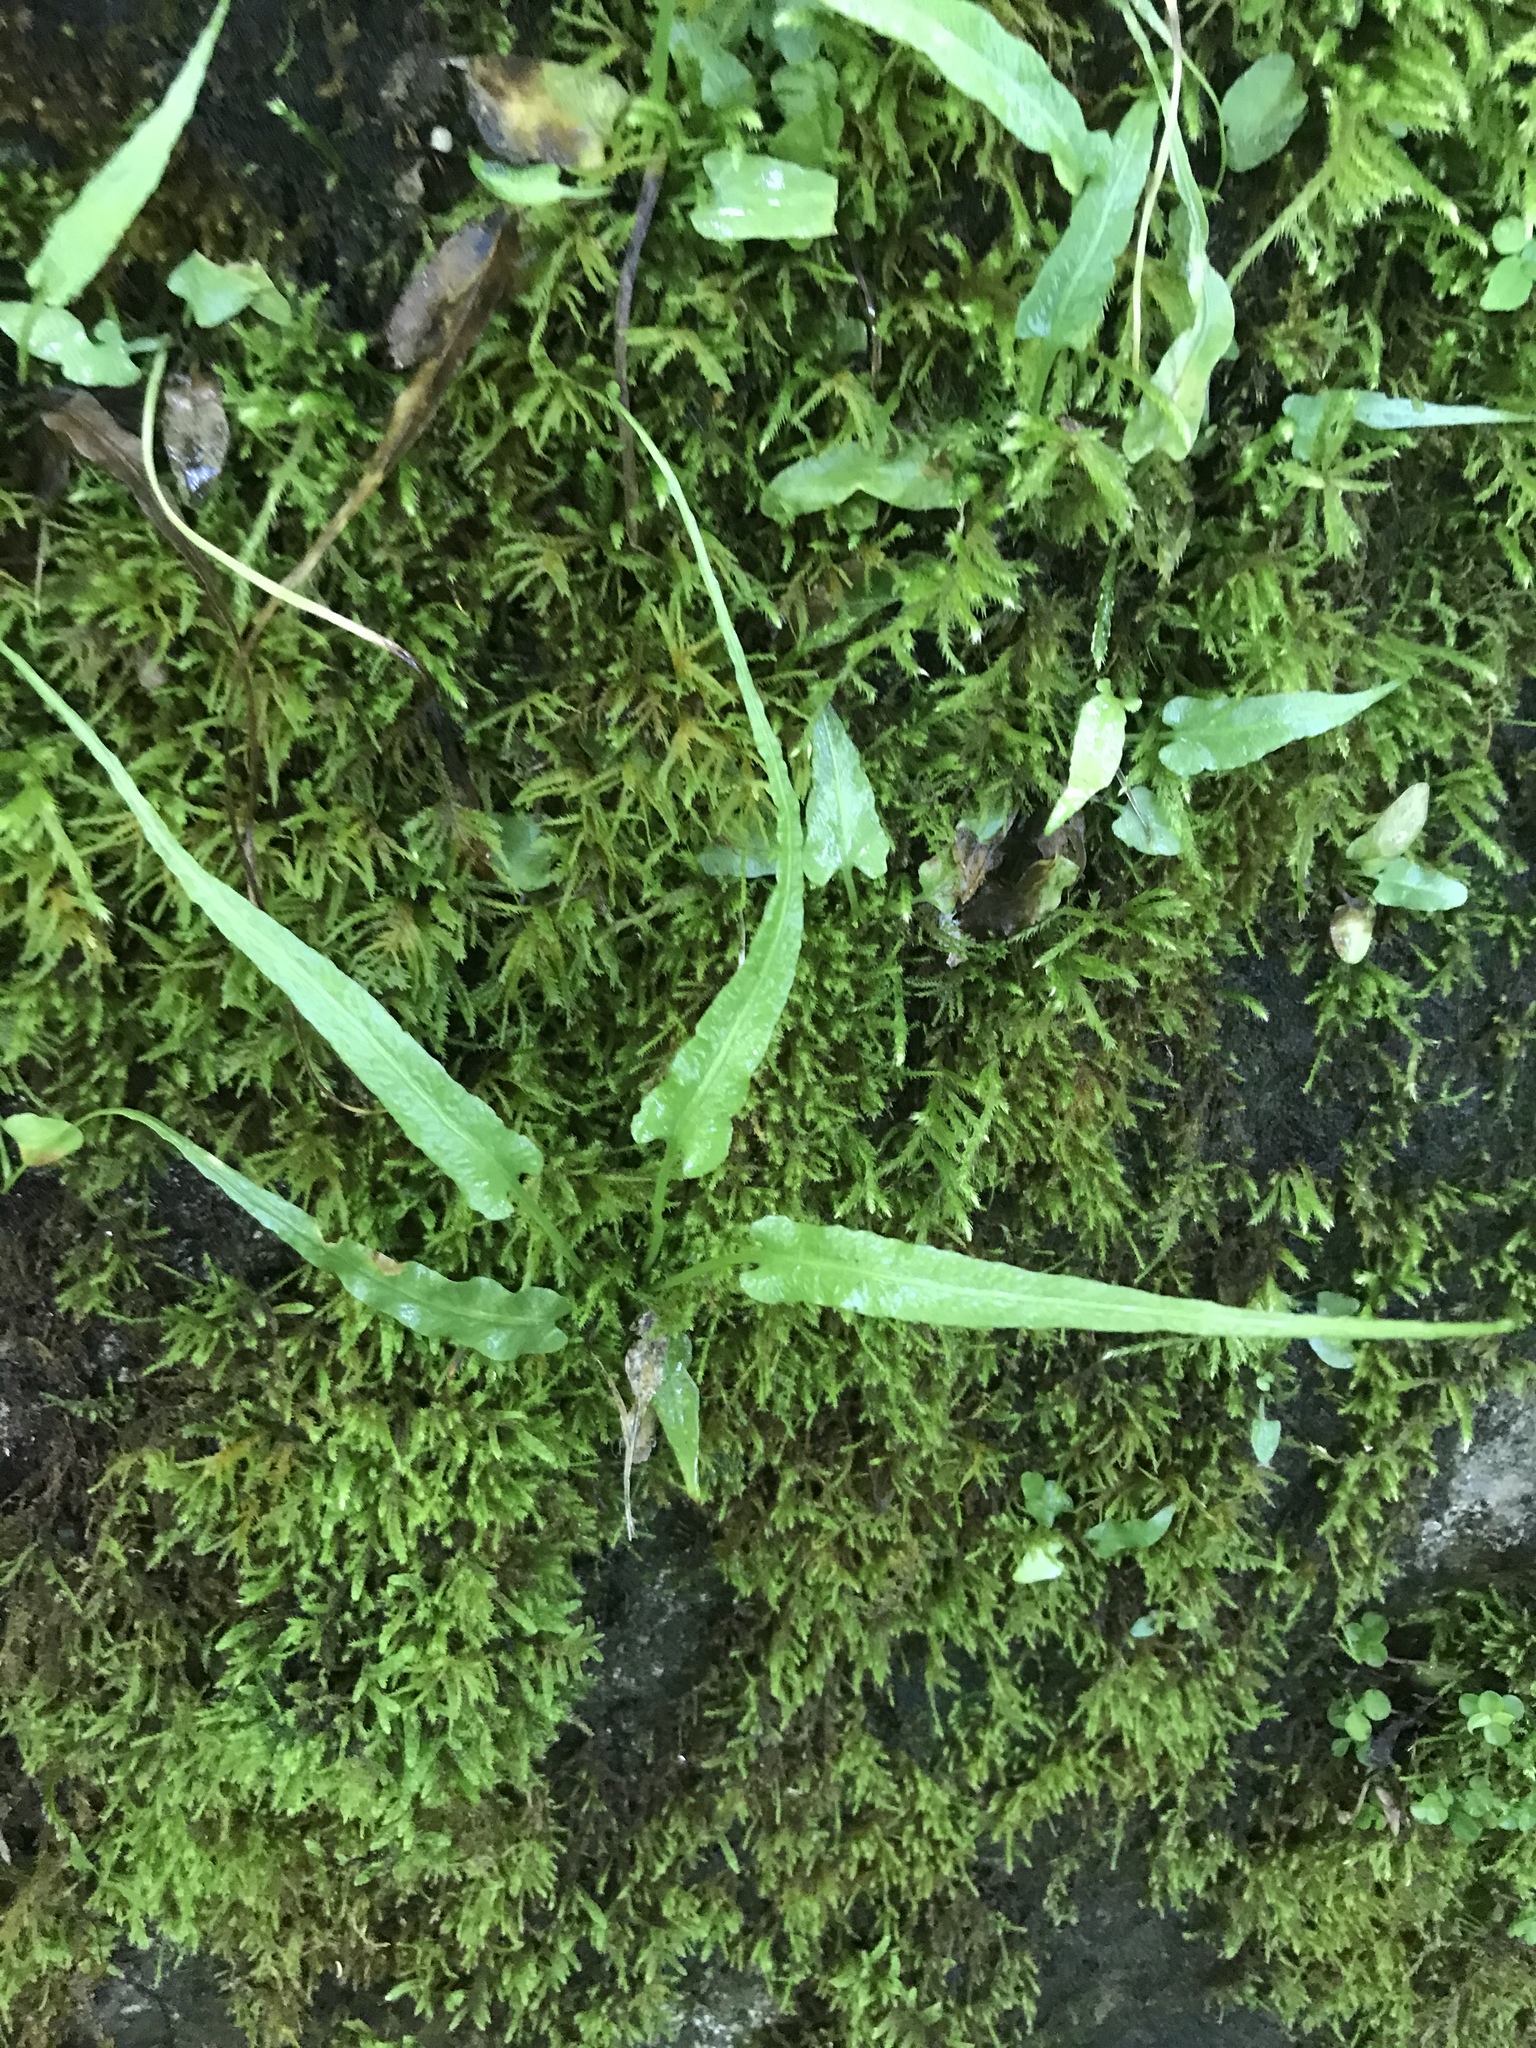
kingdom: Plantae
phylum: Tracheophyta
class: Polypodiopsida
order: Polypodiales
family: Aspleniaceae
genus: Asplenium
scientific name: Asplenium rhizophyllum
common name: Walking fern
